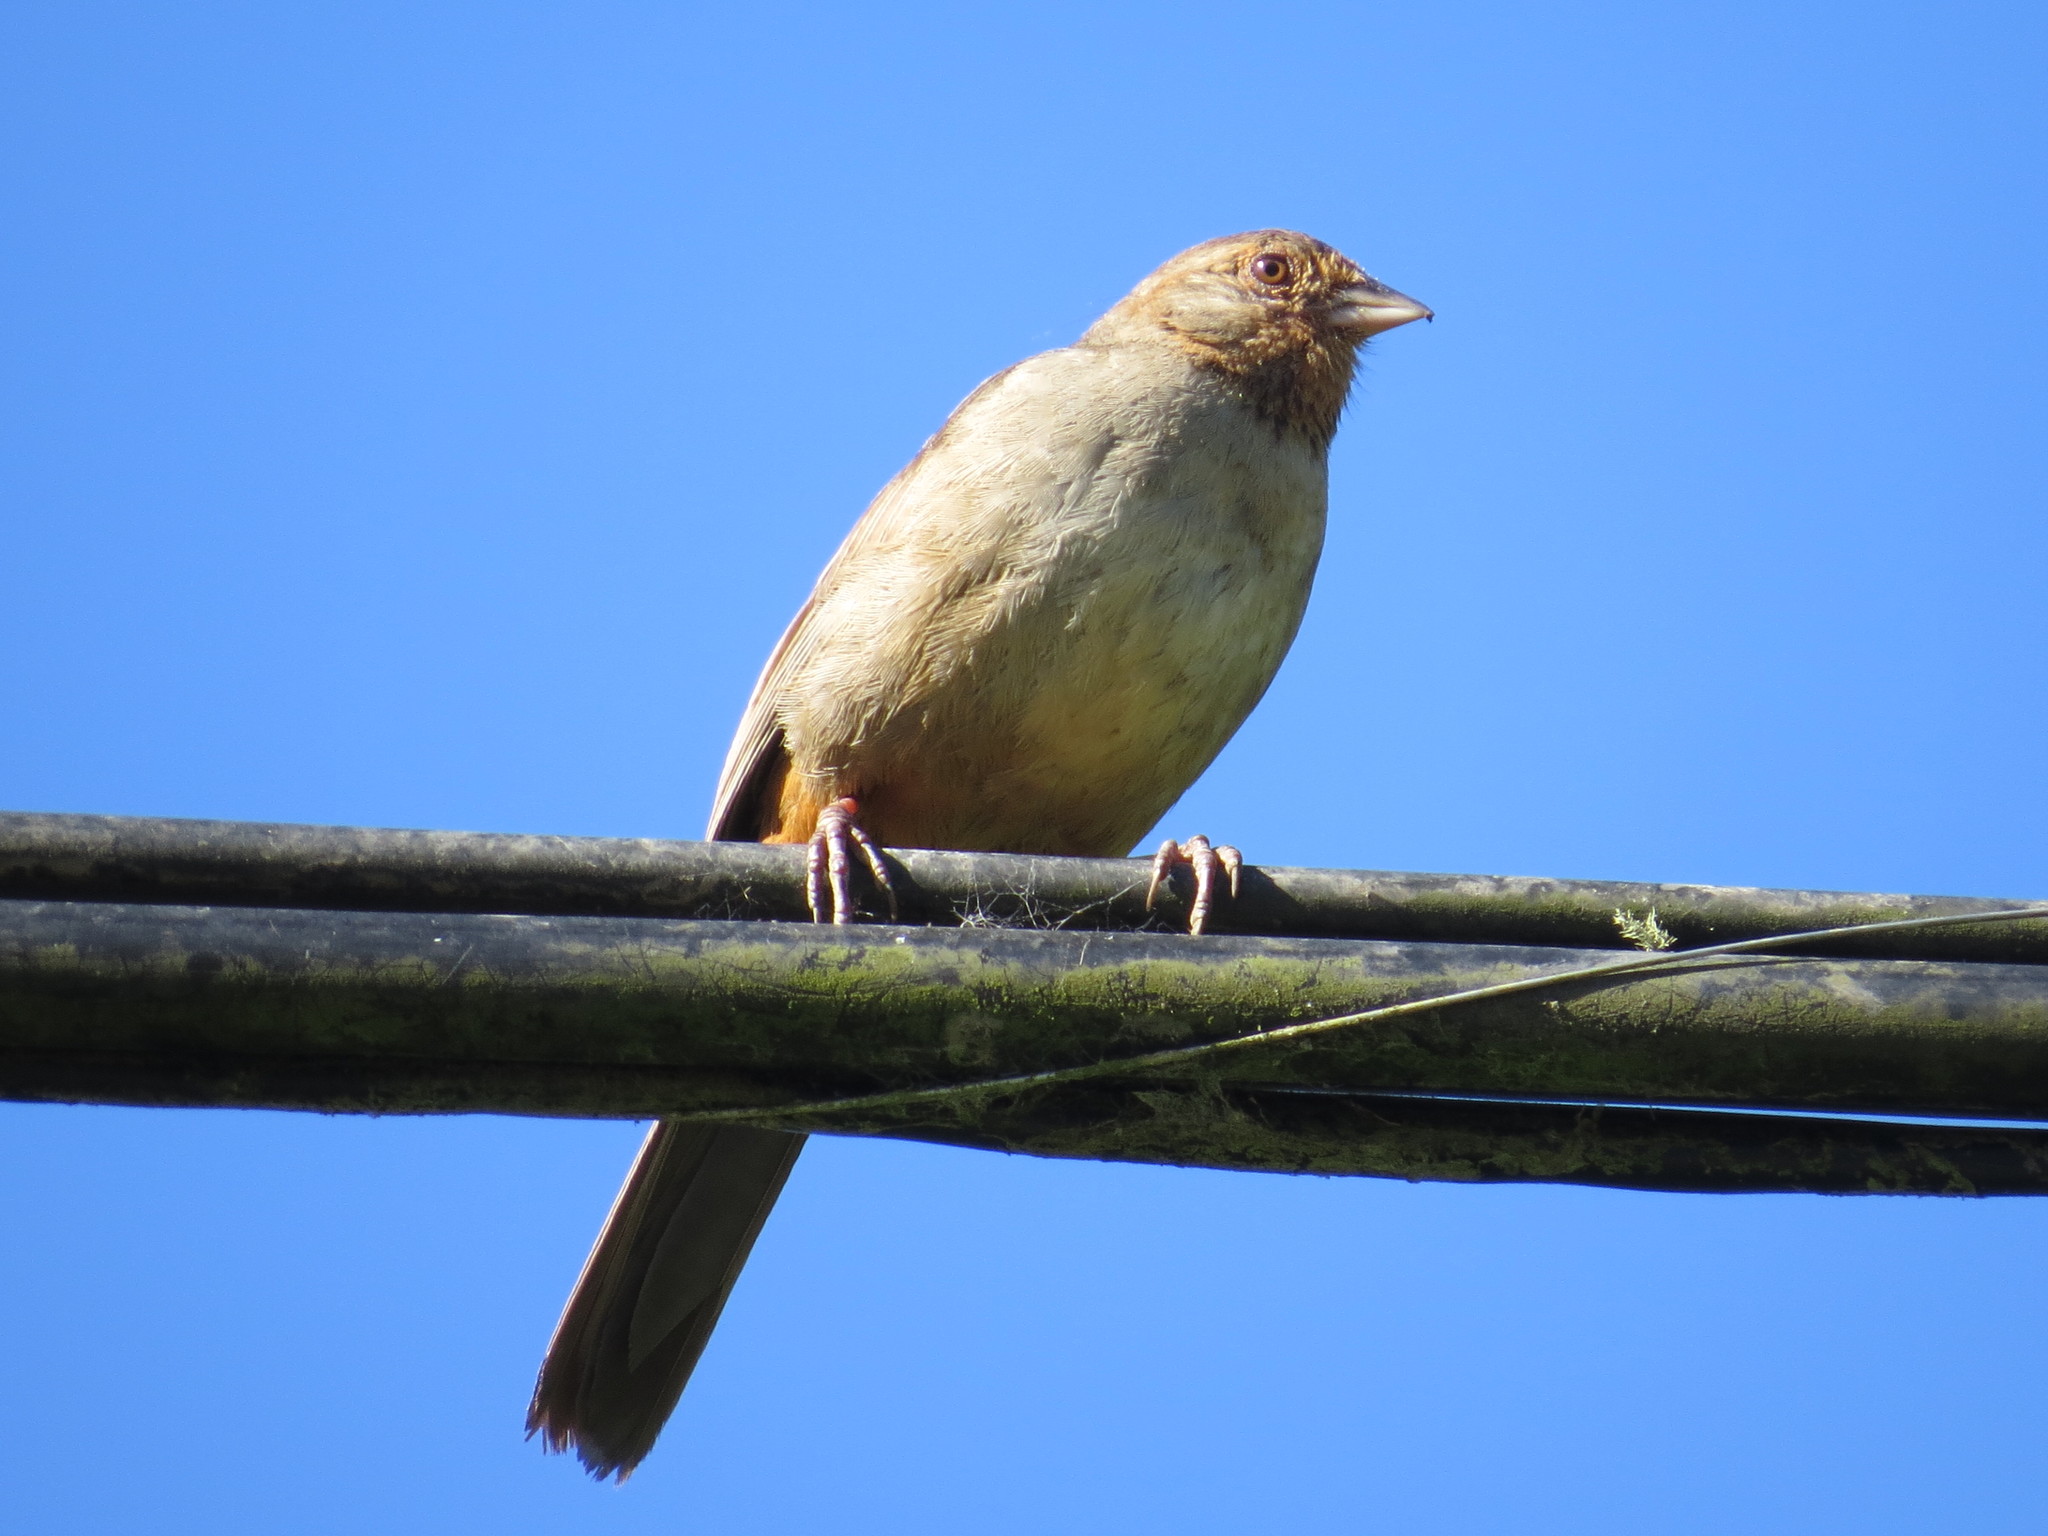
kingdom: Animalia
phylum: Chordata
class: Aves
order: Passeriformes
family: Passerellidae
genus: Melozone
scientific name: Melozone crissalis
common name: California towhee
